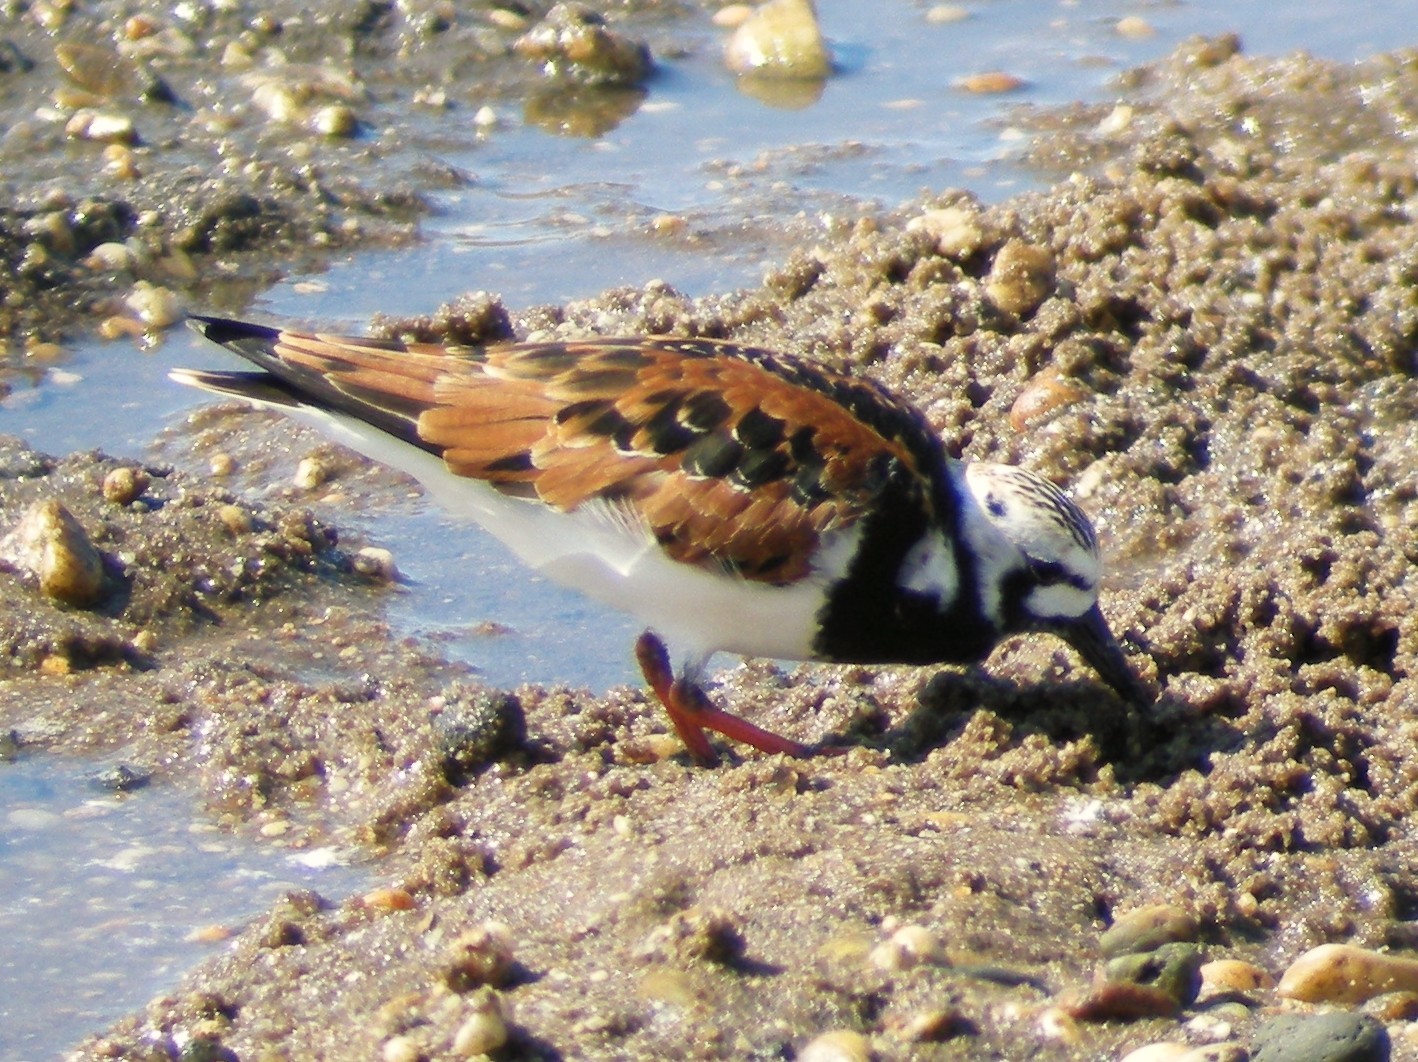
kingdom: Animalia
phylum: Chordata
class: Aves
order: Charadriiformes
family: Scolopacidae
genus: Arenaria
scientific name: Arenaria interpres
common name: Ruddy turnstone
